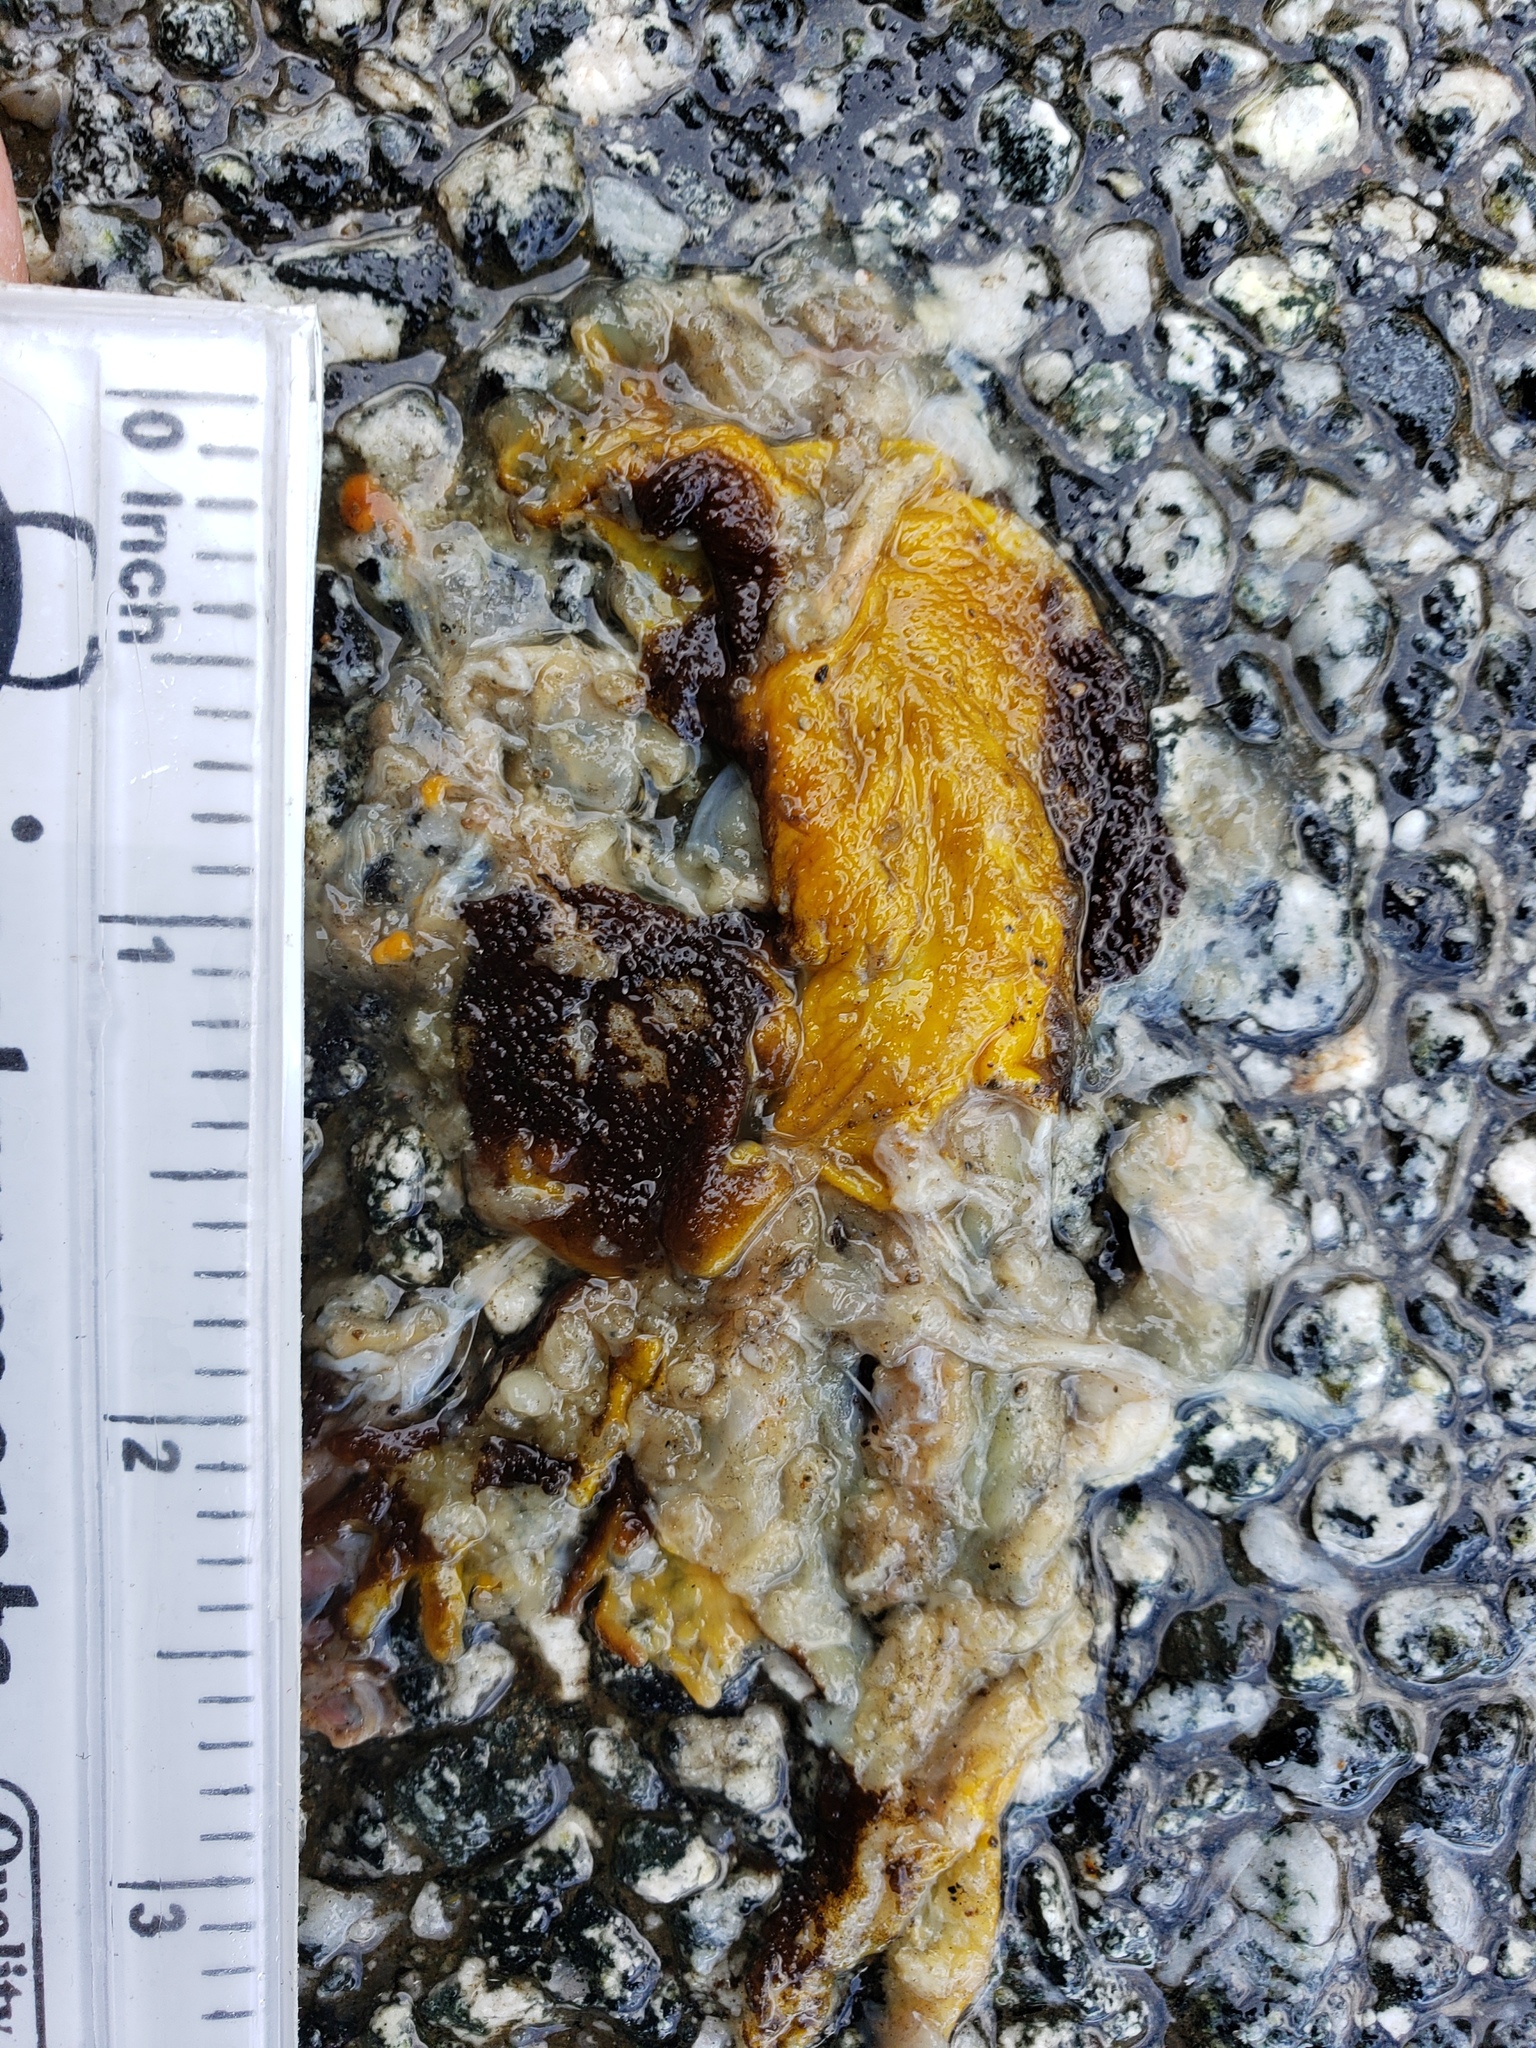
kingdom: Animalia
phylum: Chordata
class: Amphibia
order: Caudata
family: Salamandridae
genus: Taricha
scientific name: Taricha
